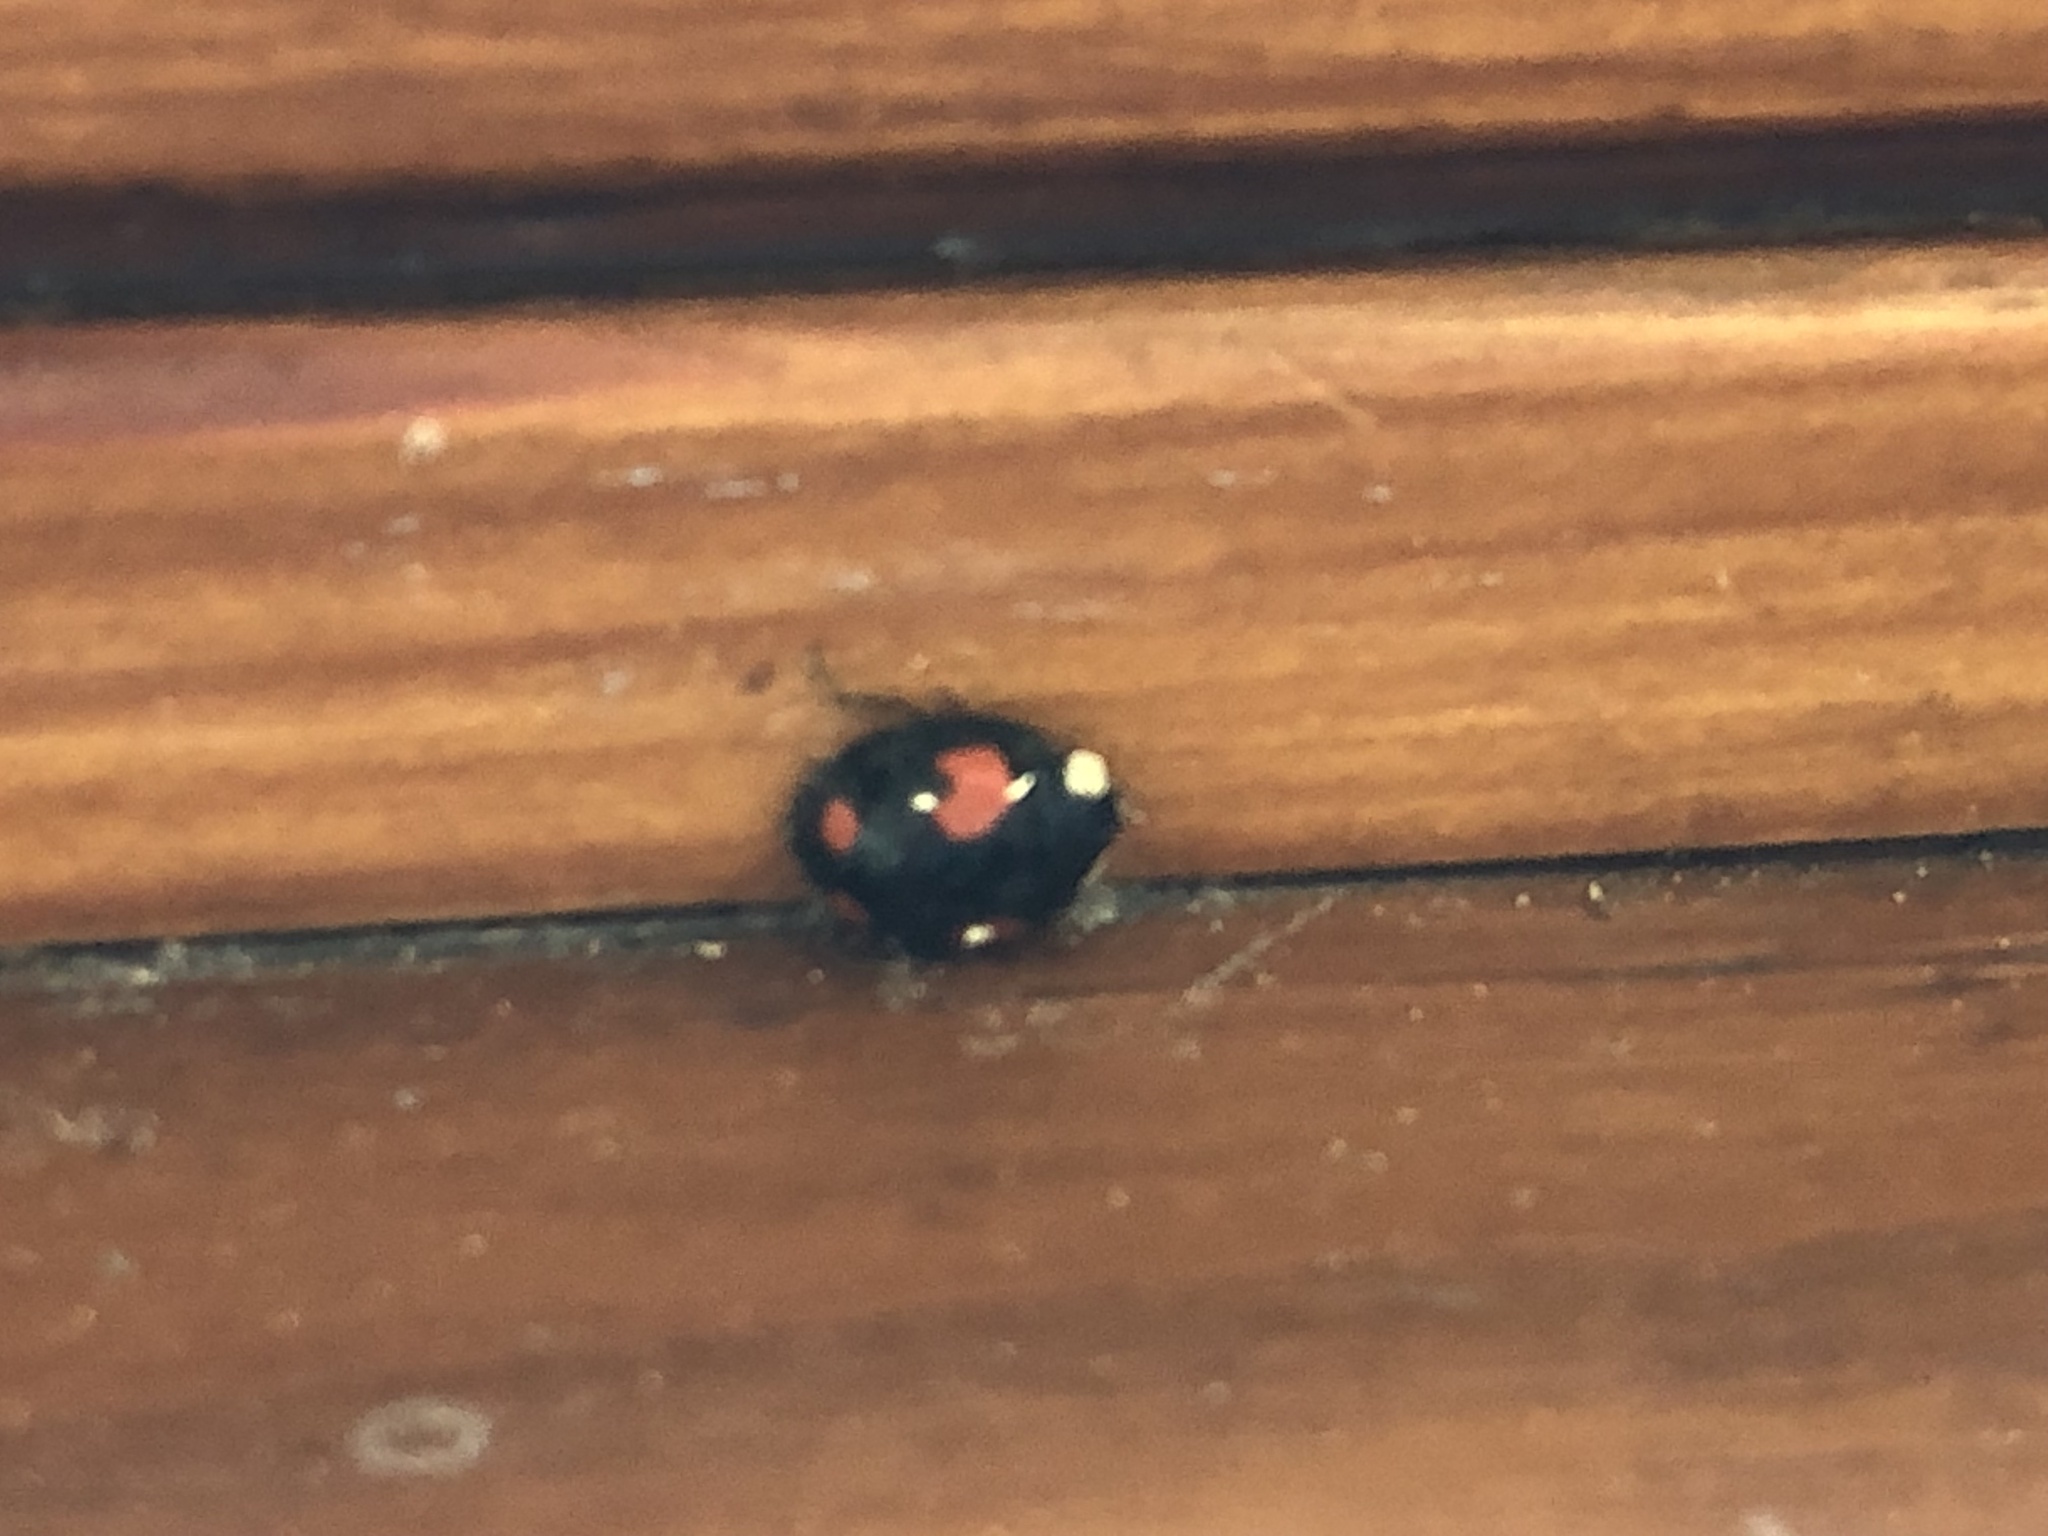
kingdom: Animalia
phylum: Arthropoda
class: Insecta
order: Coleoptera
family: Coccinellidae
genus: Harmonia
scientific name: Harmonia axyridis
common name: Harlequin ladybird
